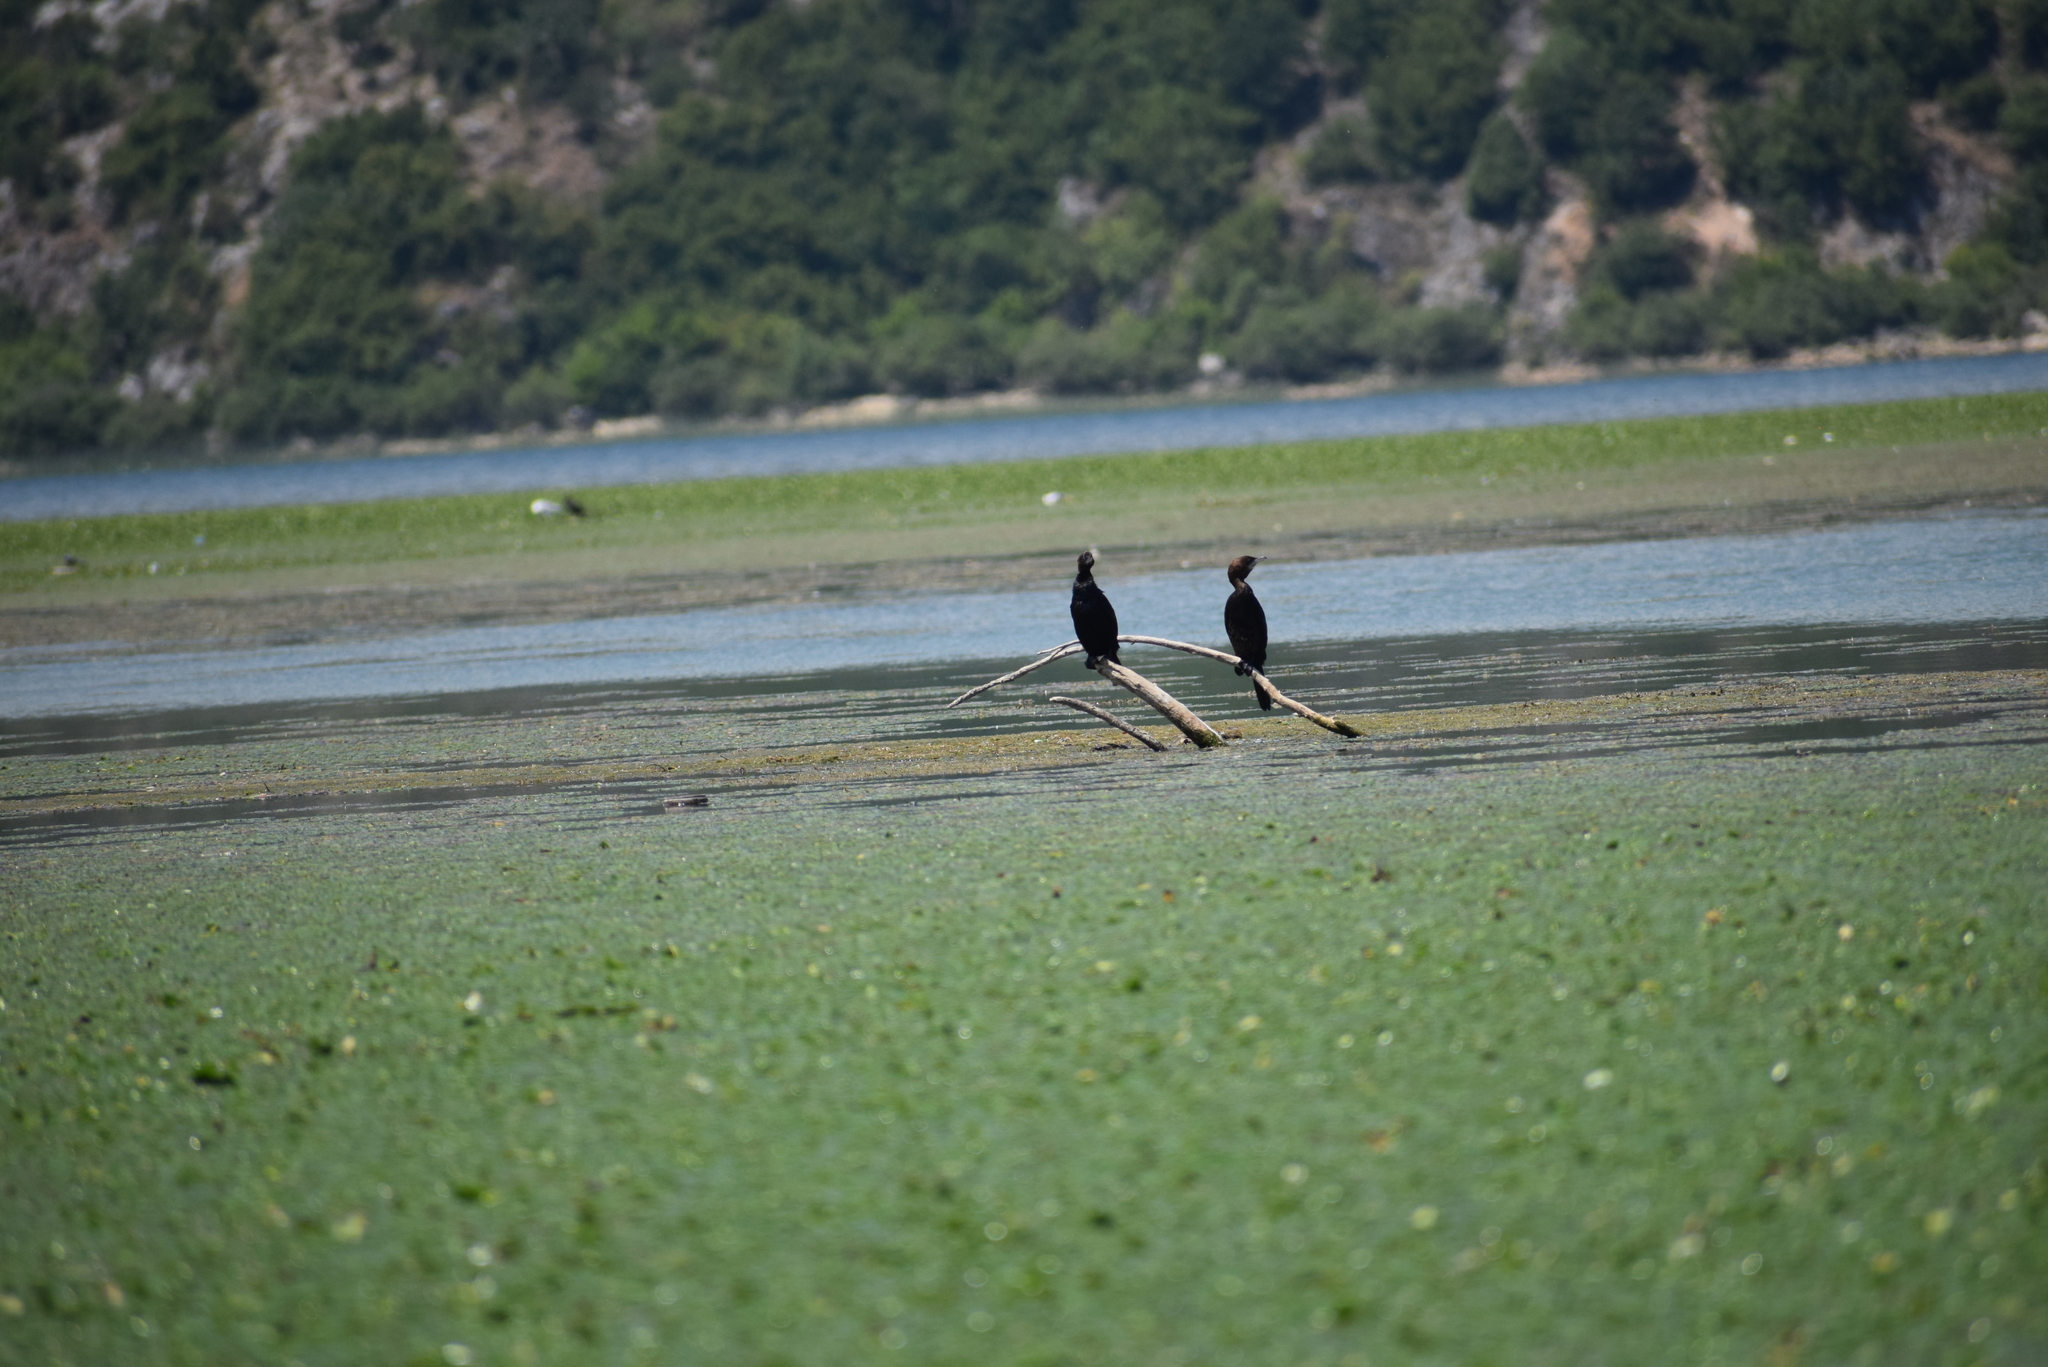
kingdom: Animalia
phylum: Chordata
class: Aves
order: Suliformes
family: Phalacrocoracidae
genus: Microcarbo
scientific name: Microcarbo pygmaeus
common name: Pygmy cormorant
